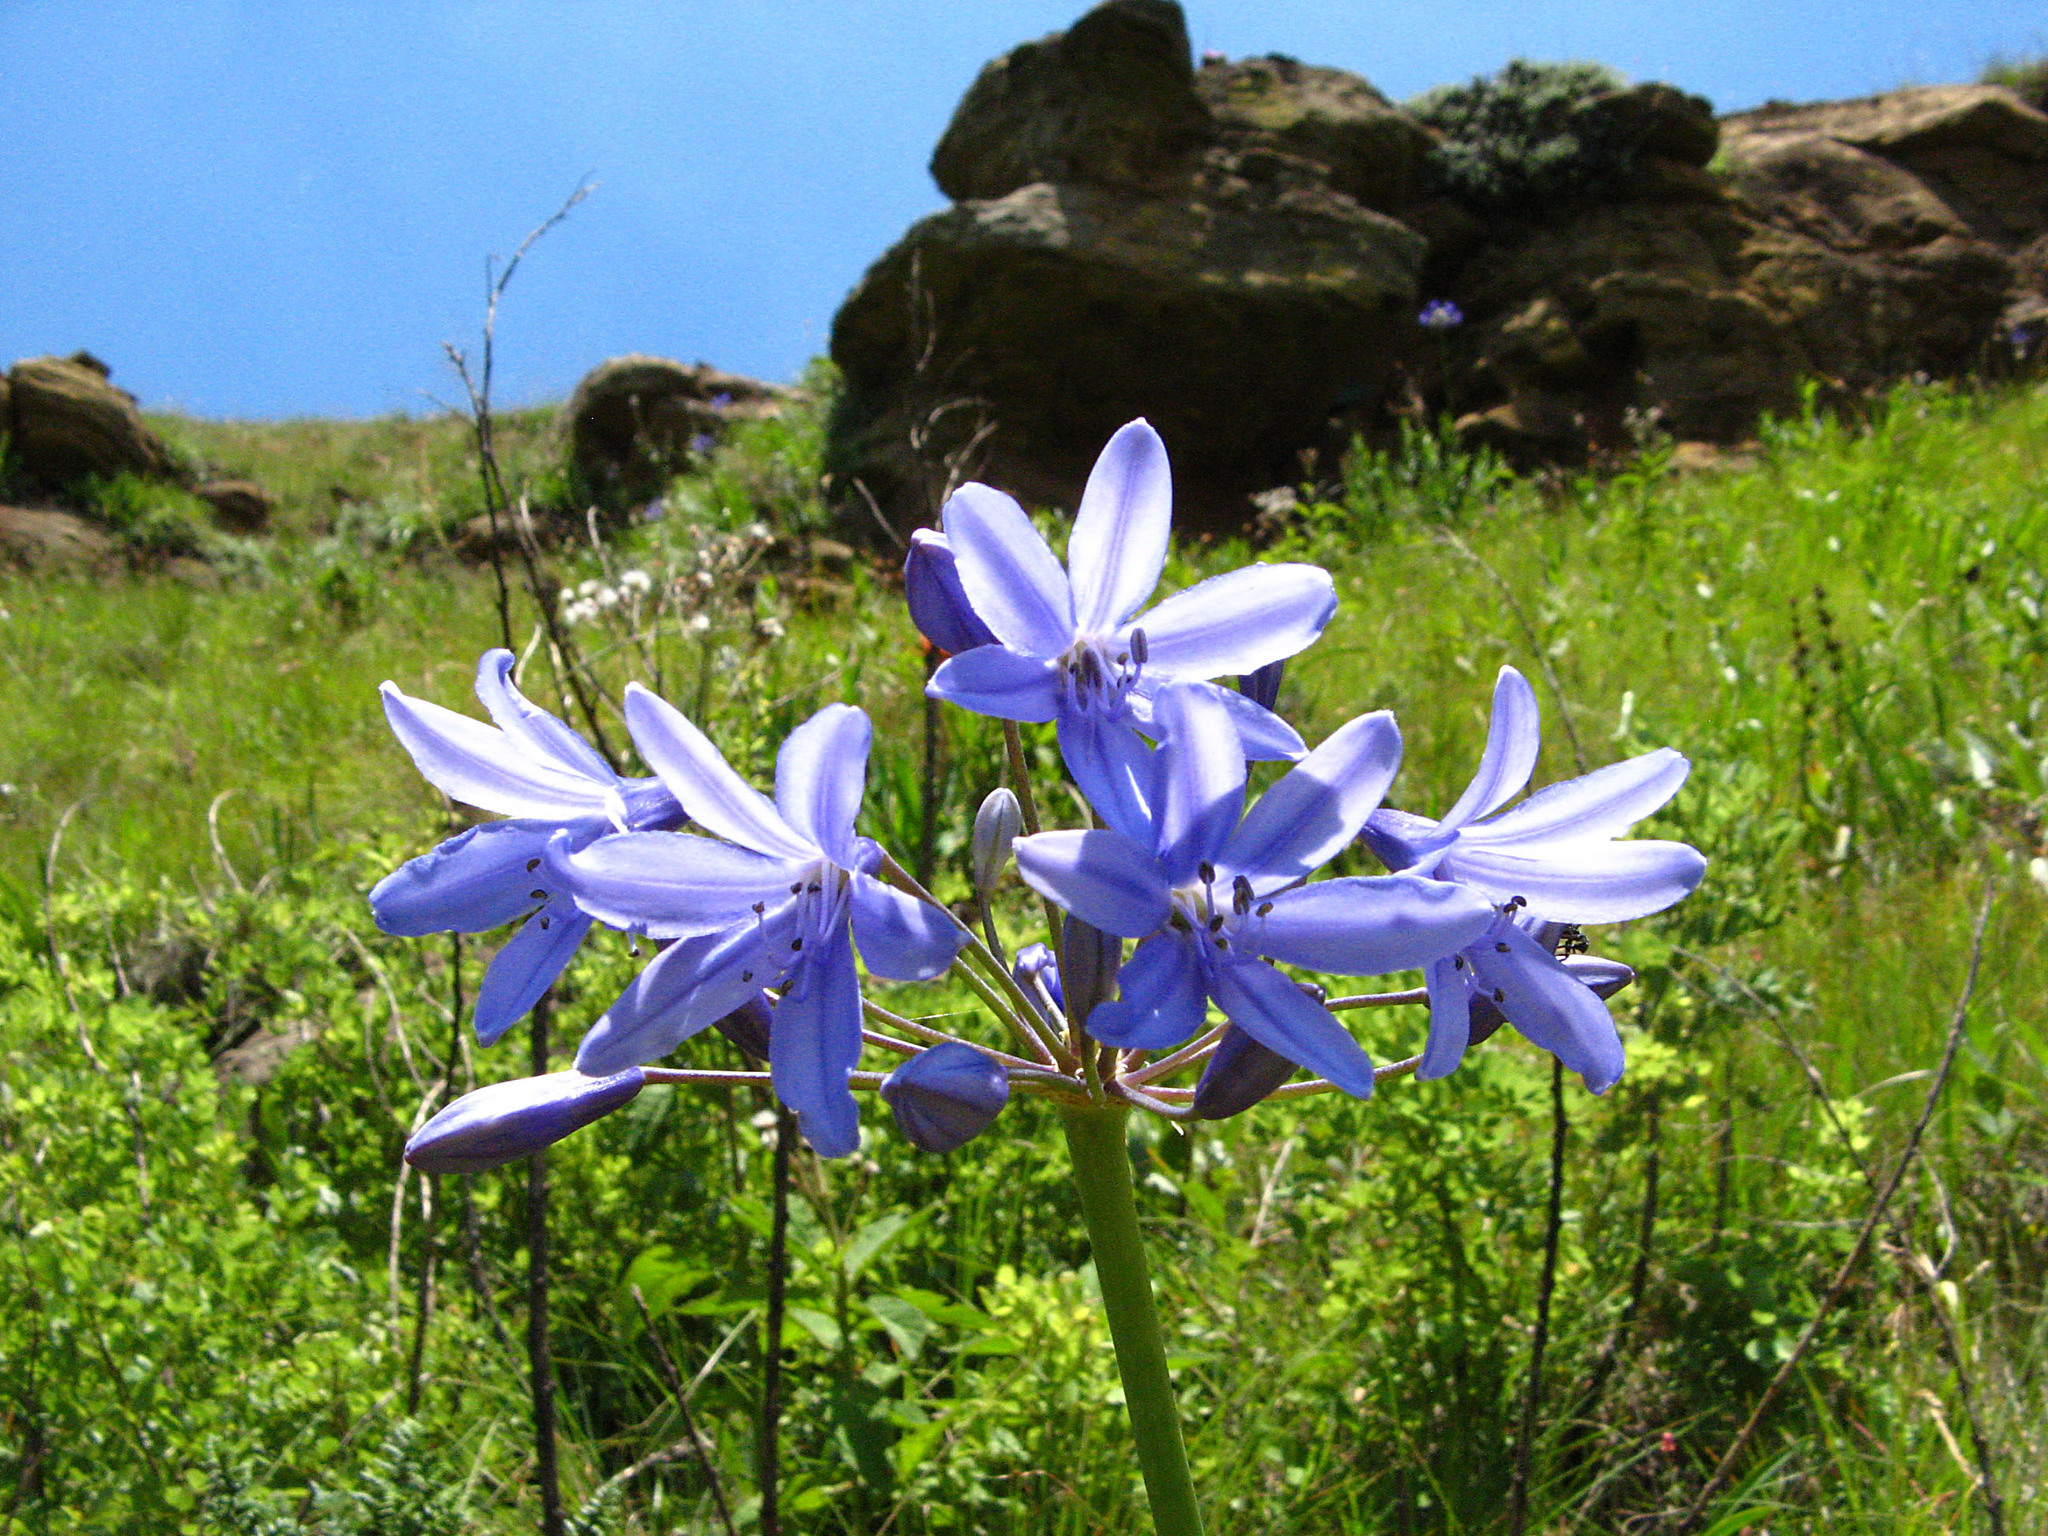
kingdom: Plantae
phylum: Tracheophyta
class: Liliopsida
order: Asparagales
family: Amaryllidaceae
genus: Agapanthus
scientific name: Agapanthus campanulatus
